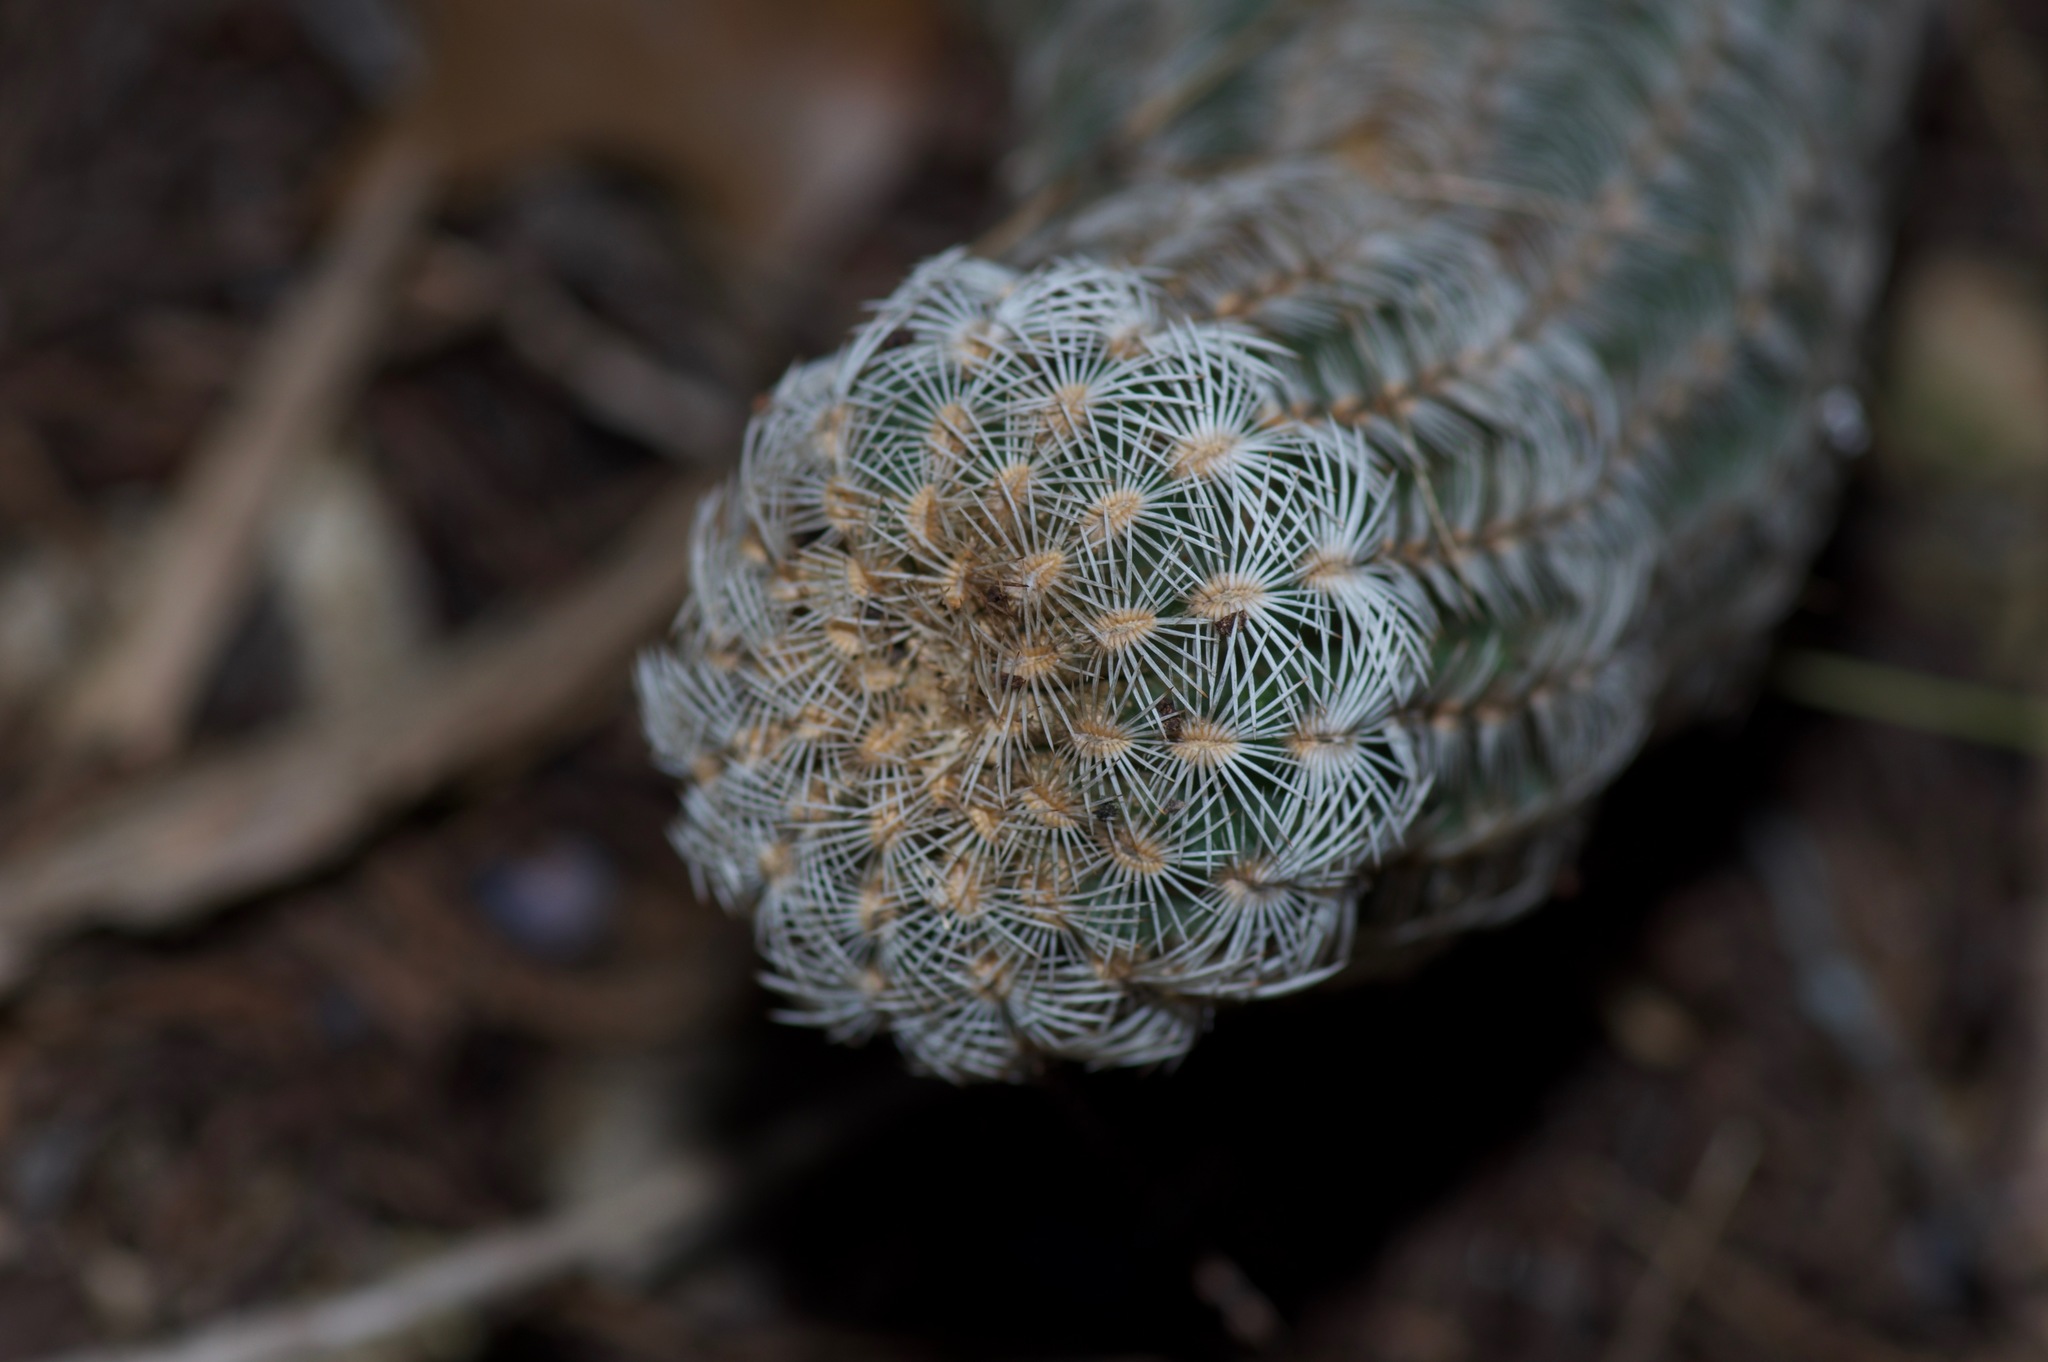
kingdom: Plantae
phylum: Tracheophyta
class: Magnoliopsida
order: Caryophyllales
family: Cactaceae
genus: Echinocereus
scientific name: Echinocereus reichenbachii
